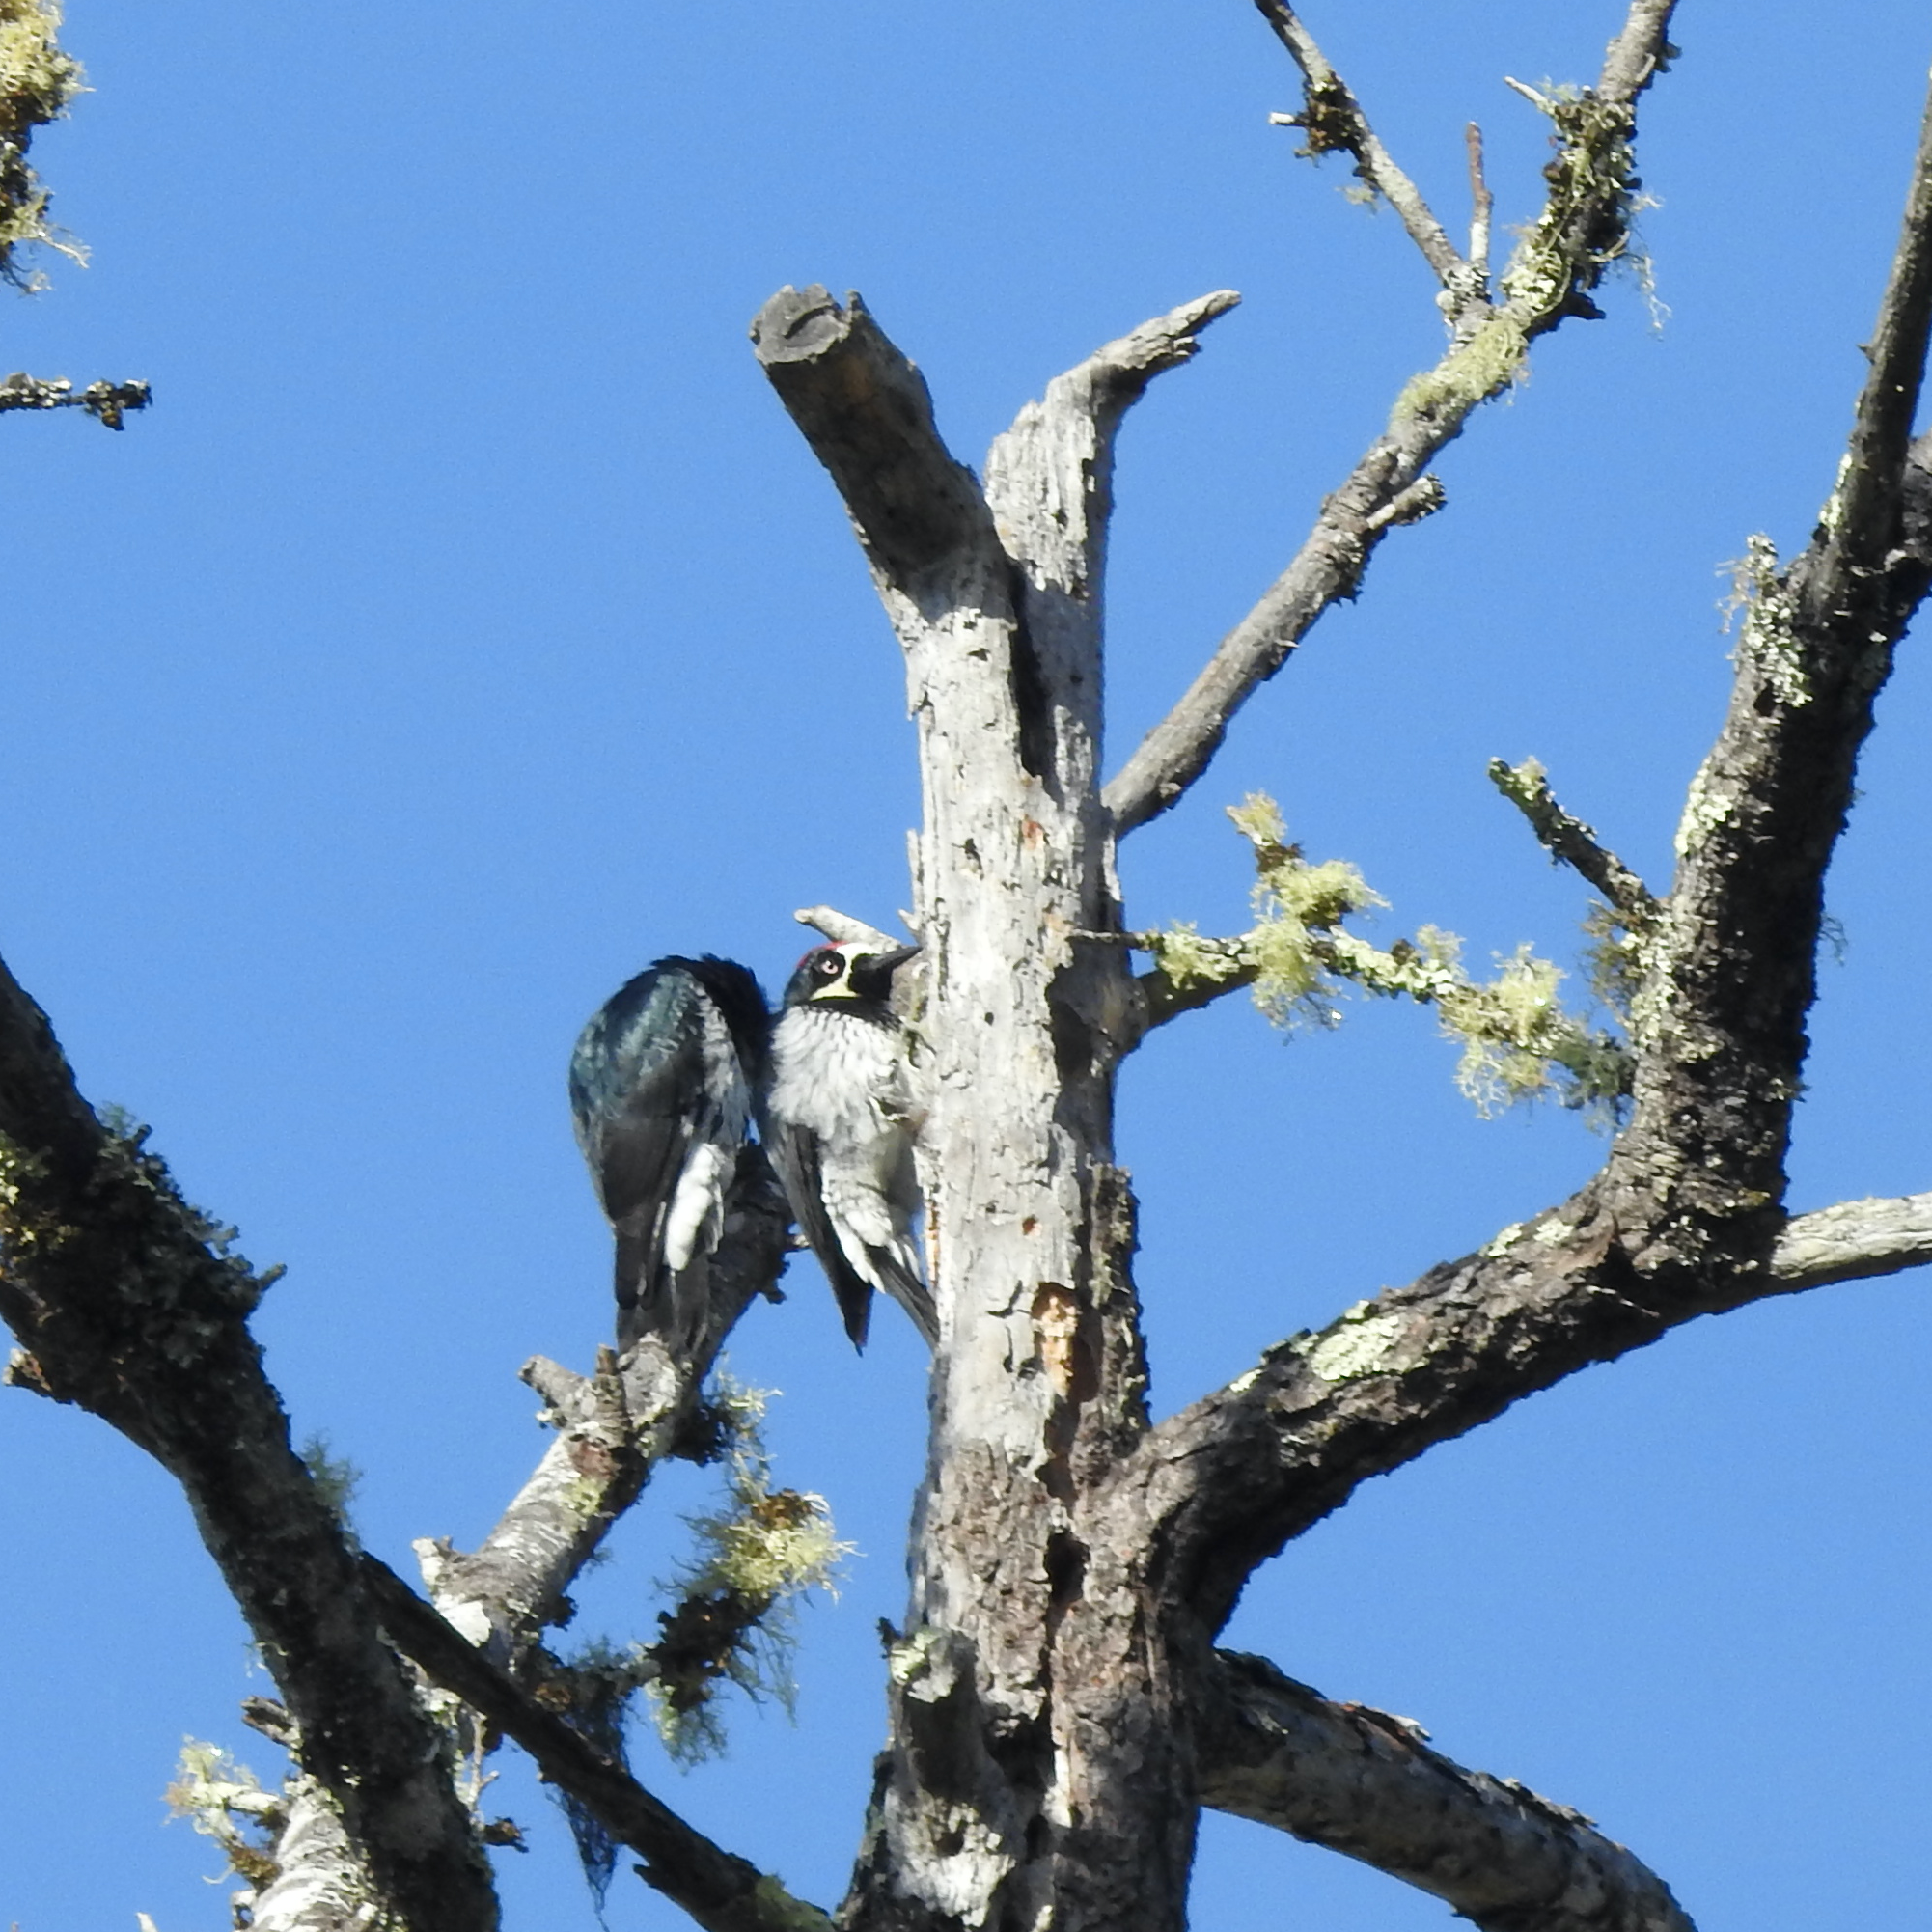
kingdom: Animalia
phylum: Chordata
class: Aves
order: Piciformes
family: Picidae
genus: Melanerpes
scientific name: Melanerpes formicivorus
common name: Acorn woodpecker
